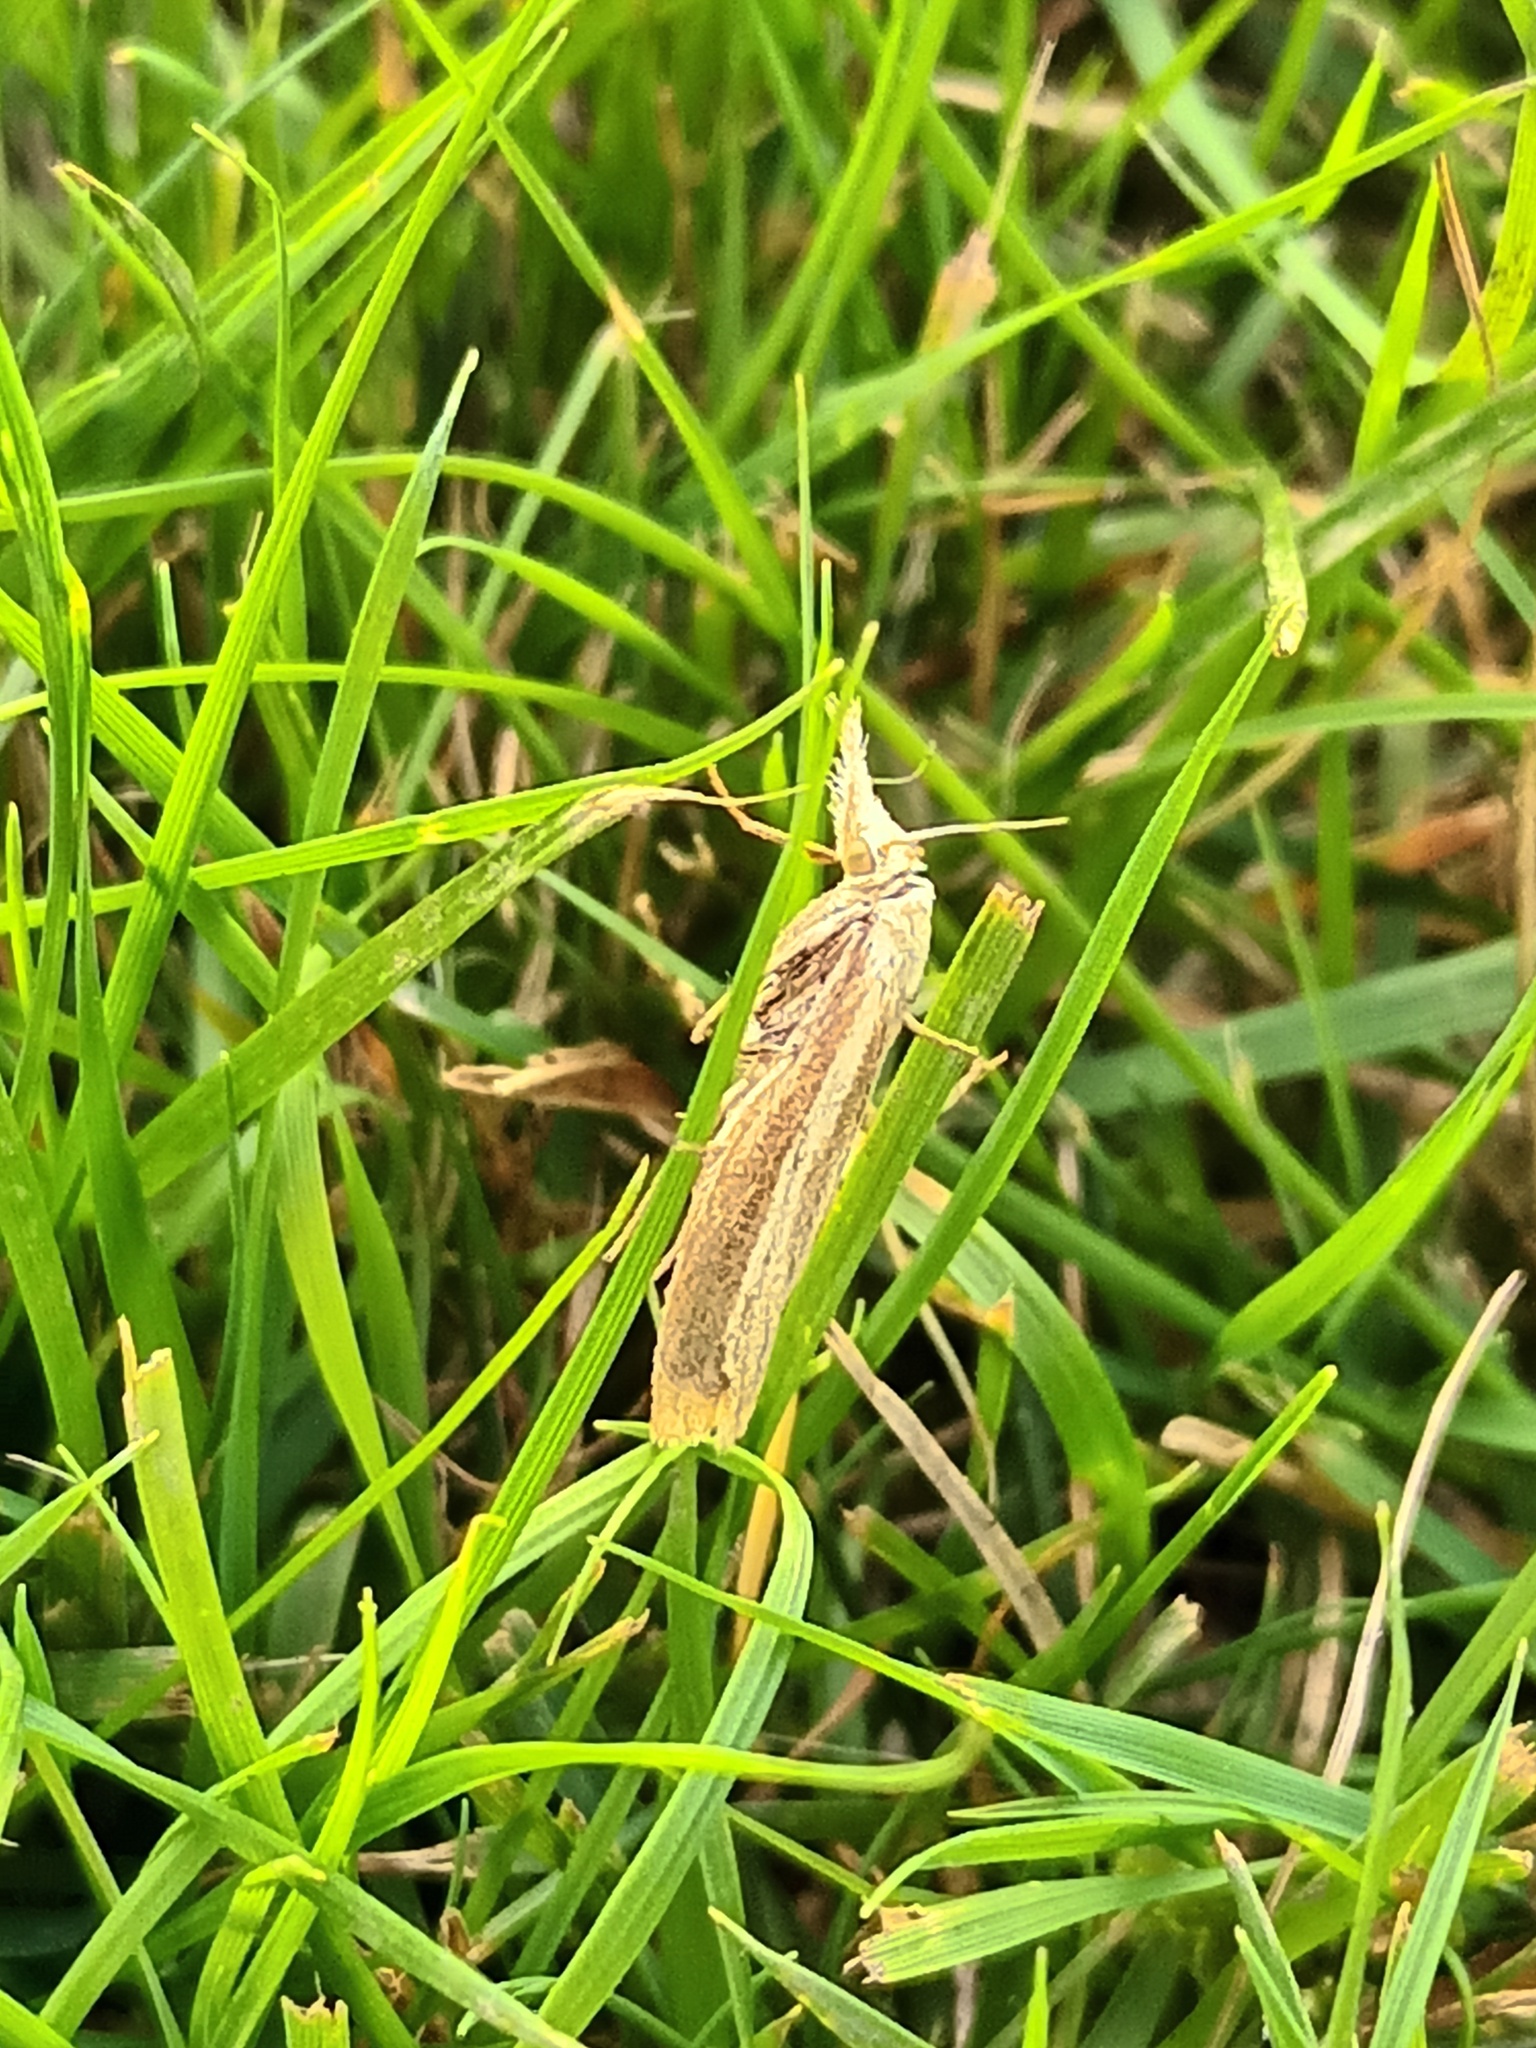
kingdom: Animalia
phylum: Arthropoda
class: Insecta
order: Lepidoptera
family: Crambidae
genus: Agriphila
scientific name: Agriphila tristellus
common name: Common grass-veneer
